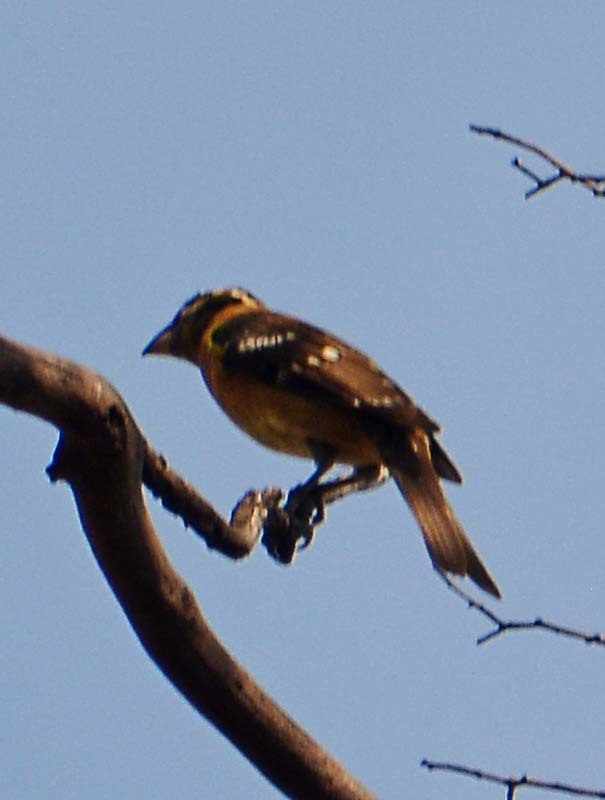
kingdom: Animalia
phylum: Chordata
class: Aves
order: Passeriformes
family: Cardinalidae
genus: Pheucticus
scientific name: Pheucticus melanocephalus
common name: Black-headed grosbeak
